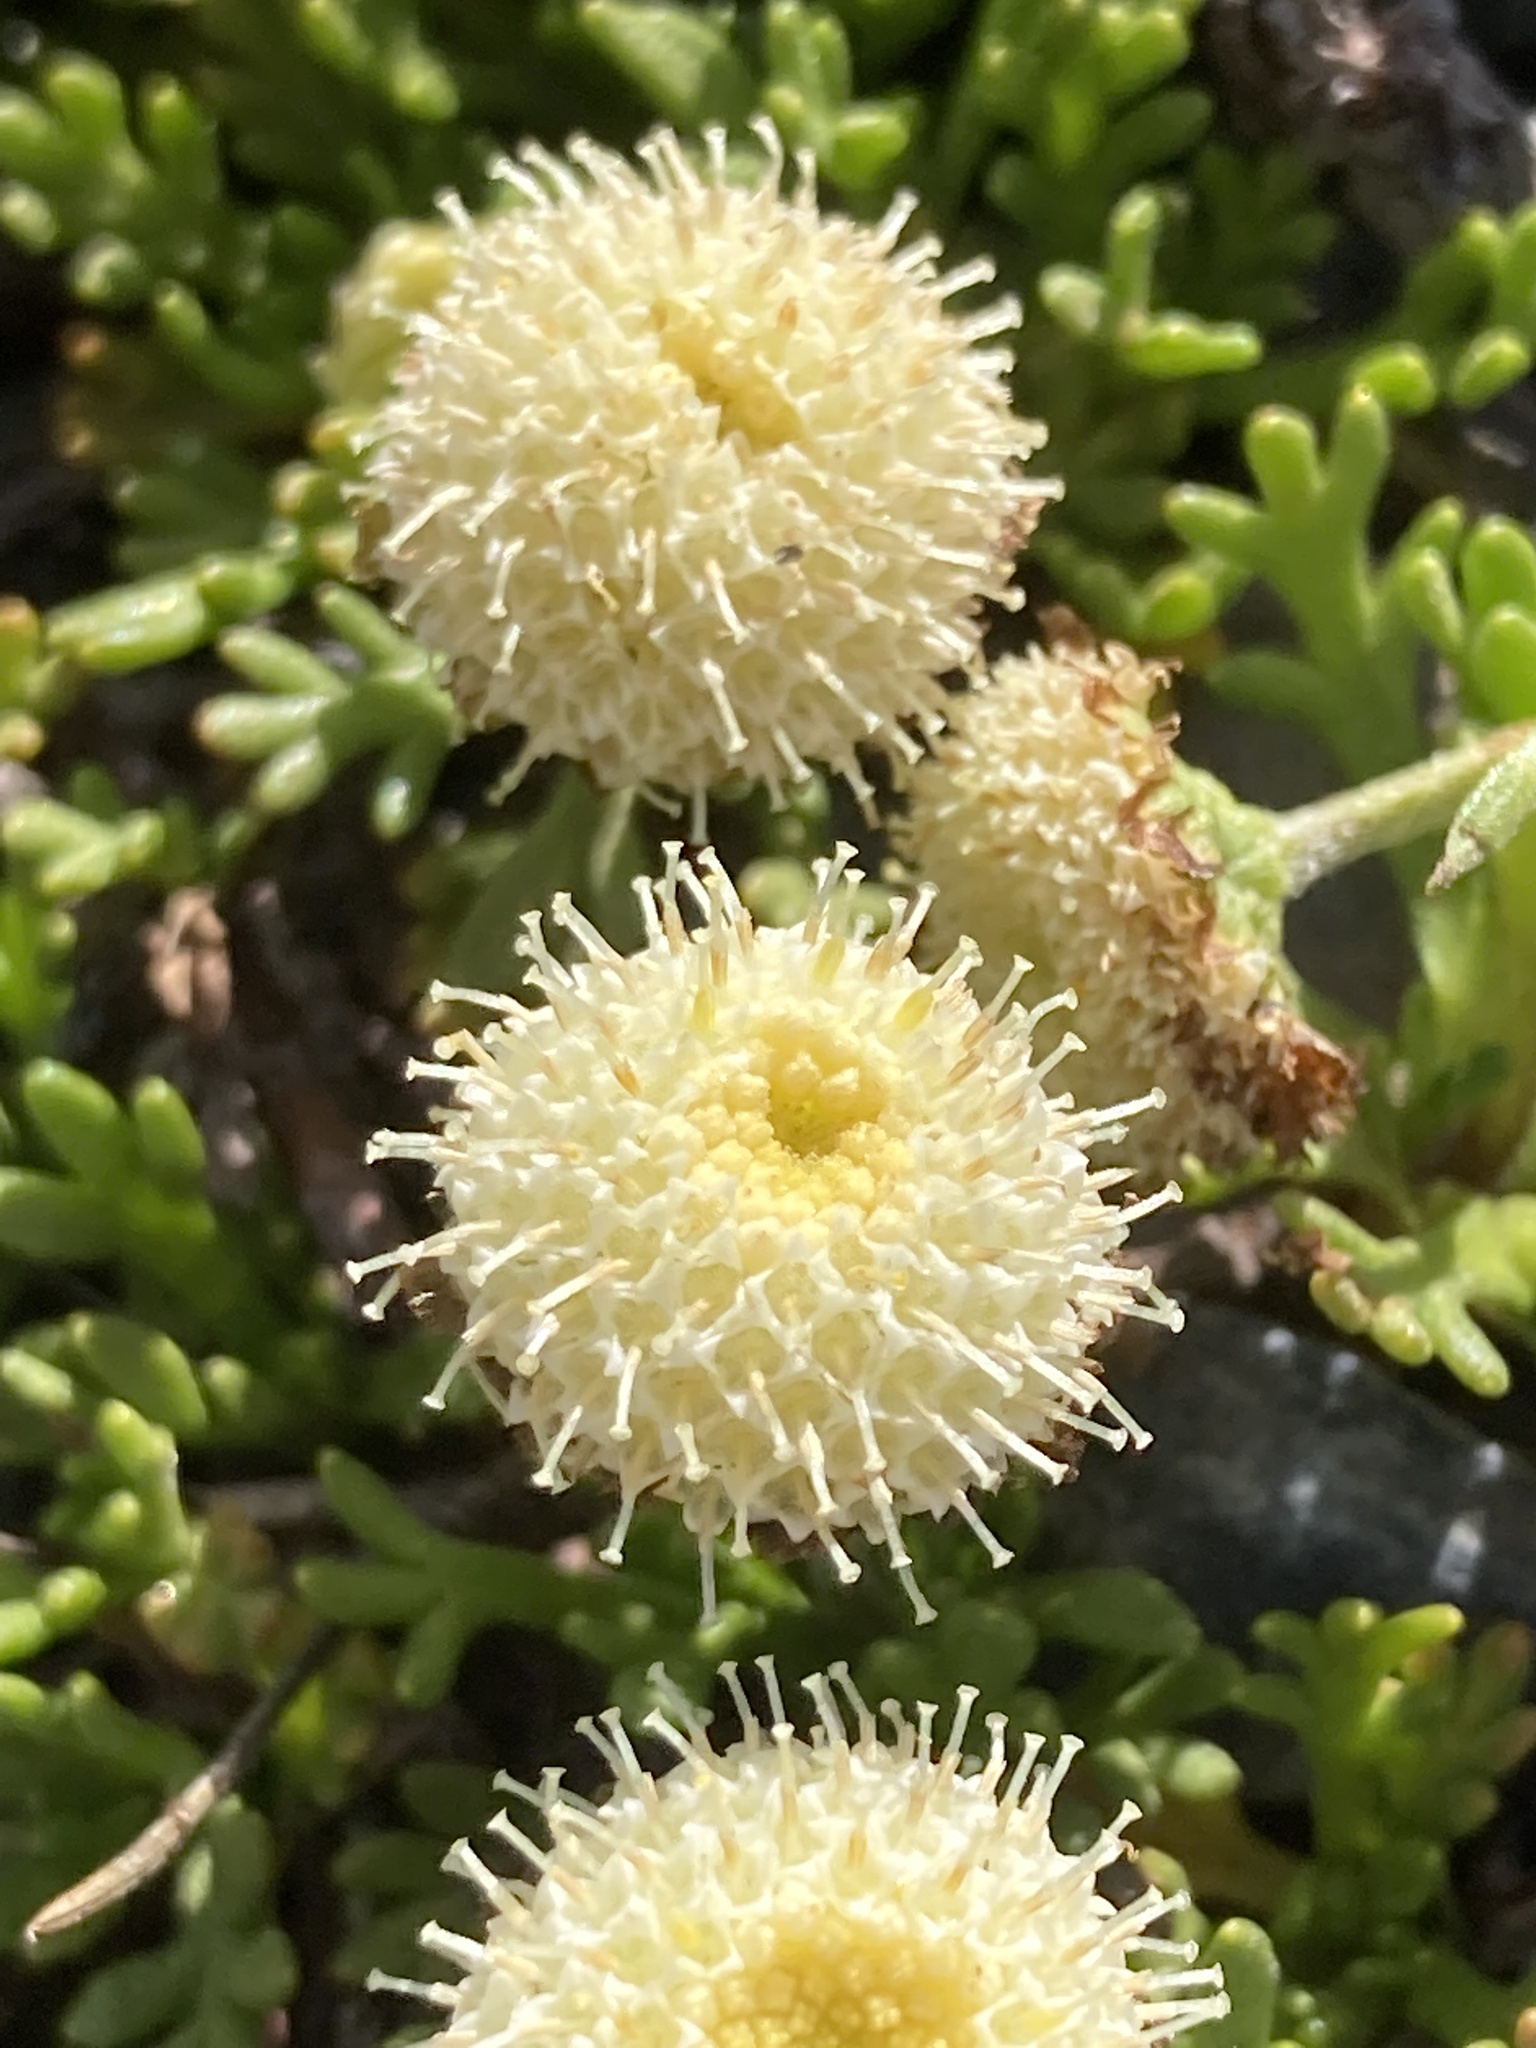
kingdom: Plantae
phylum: Tracheophyta
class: Magnoliopsida
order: Asterales
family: Asteraceae
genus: Leptinella
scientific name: Leptinella pyrethrifolia
